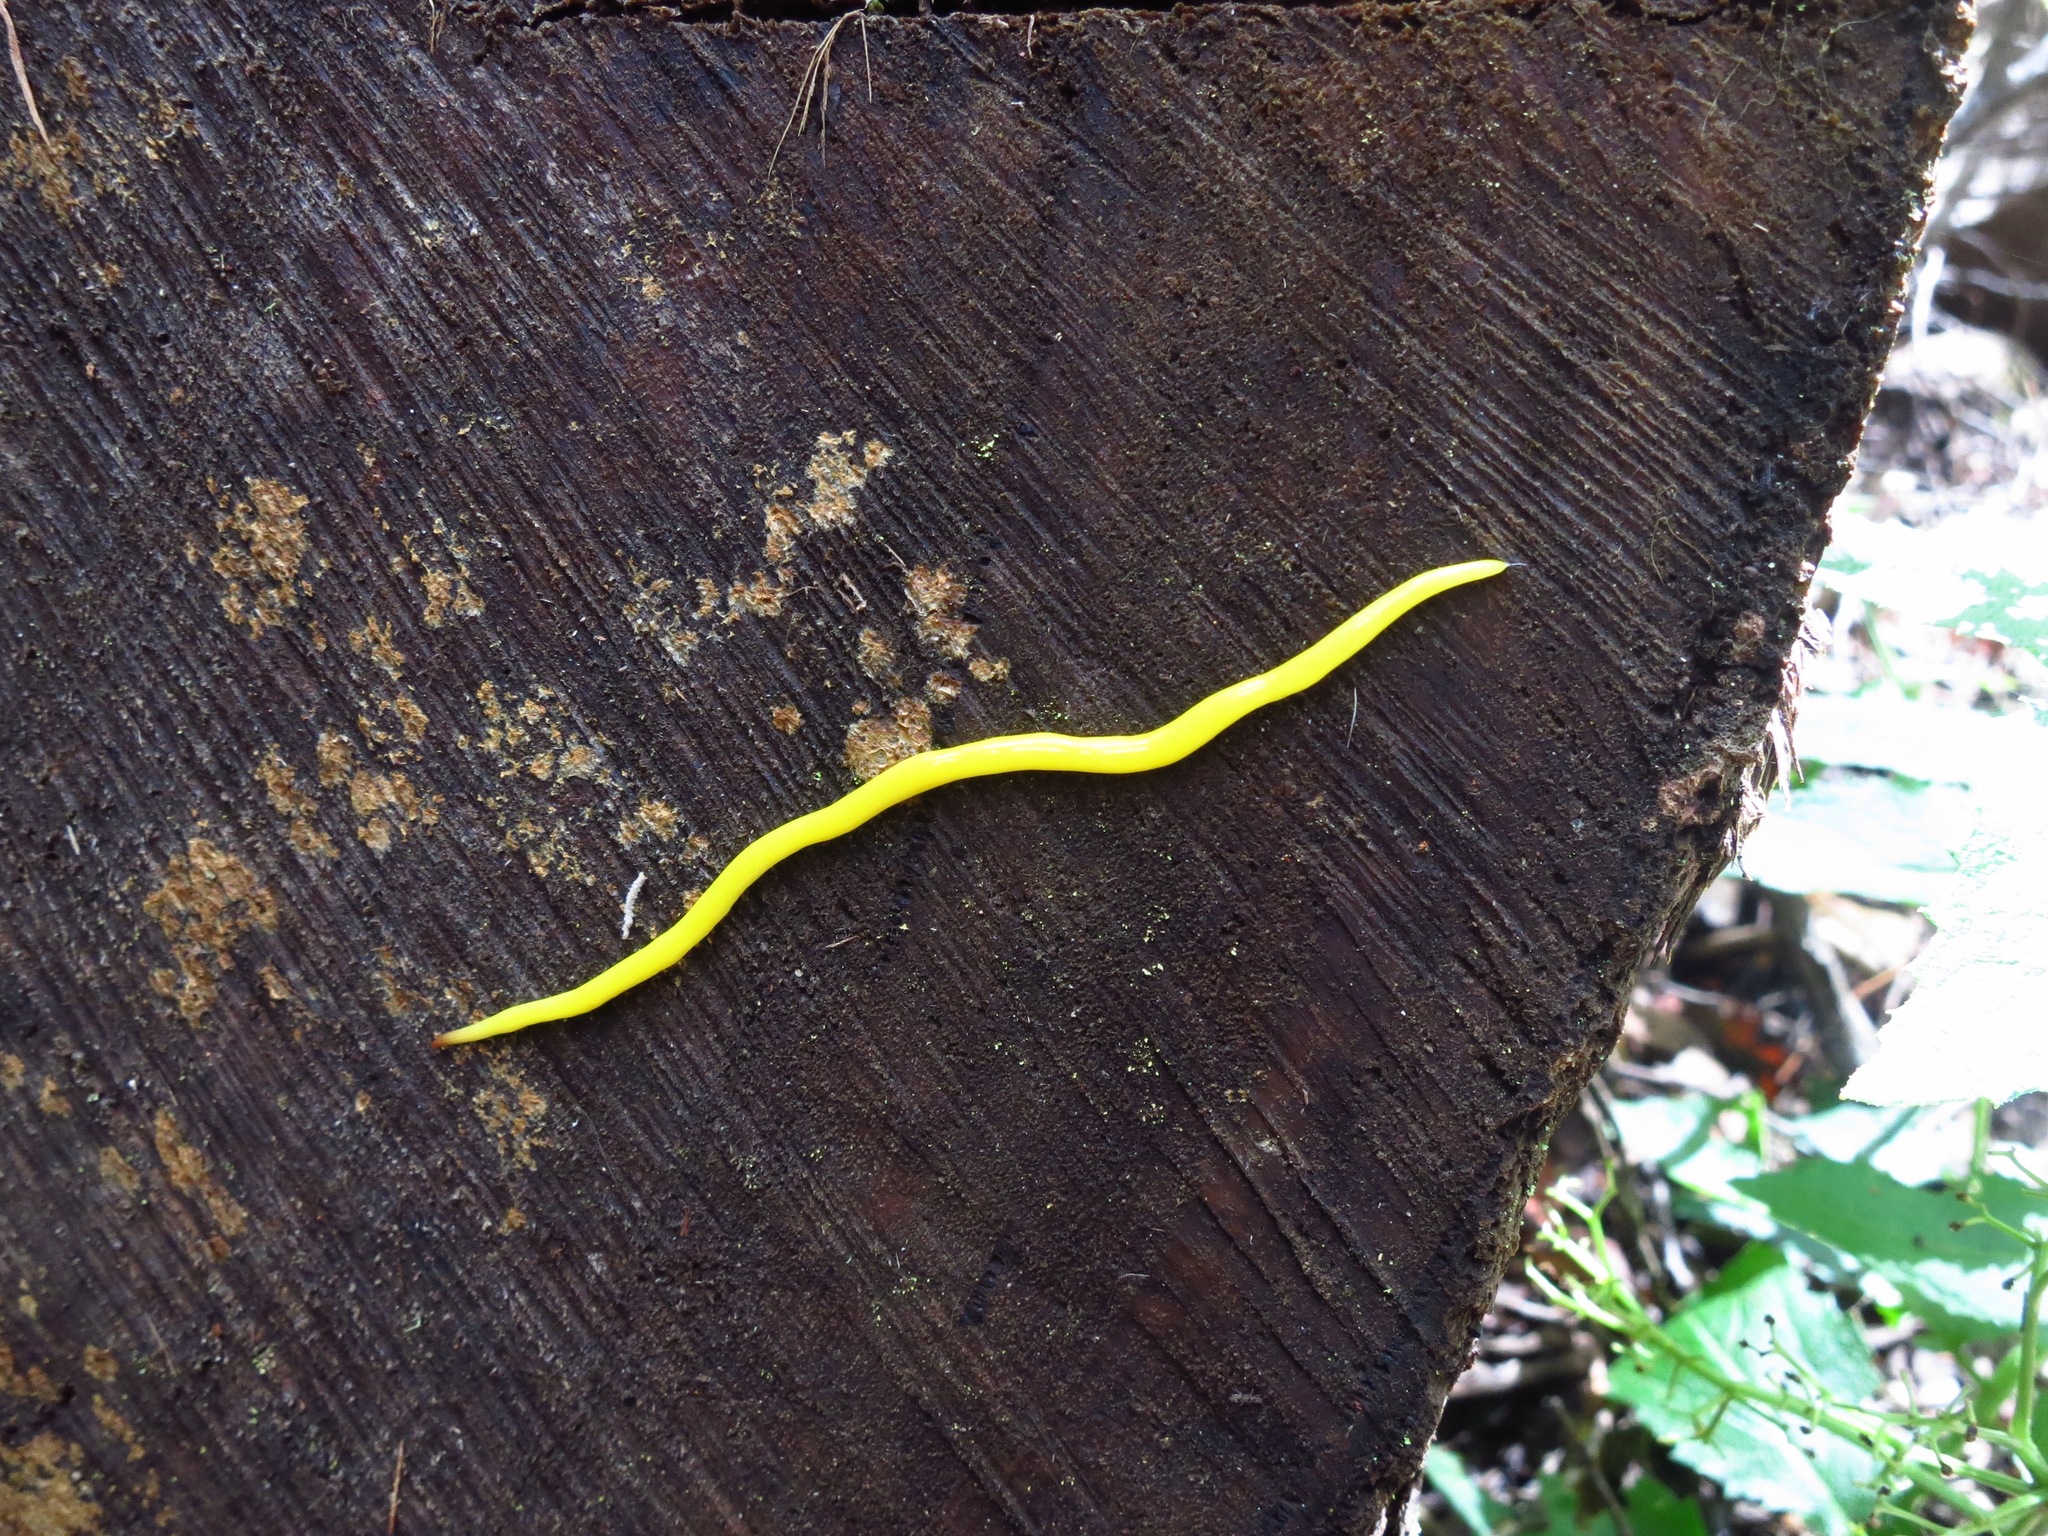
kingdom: Animalia
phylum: Platyhelminthes
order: Tricladida
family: Geoplanidae
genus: Fletchamia
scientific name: Fletchamia sugdeni
